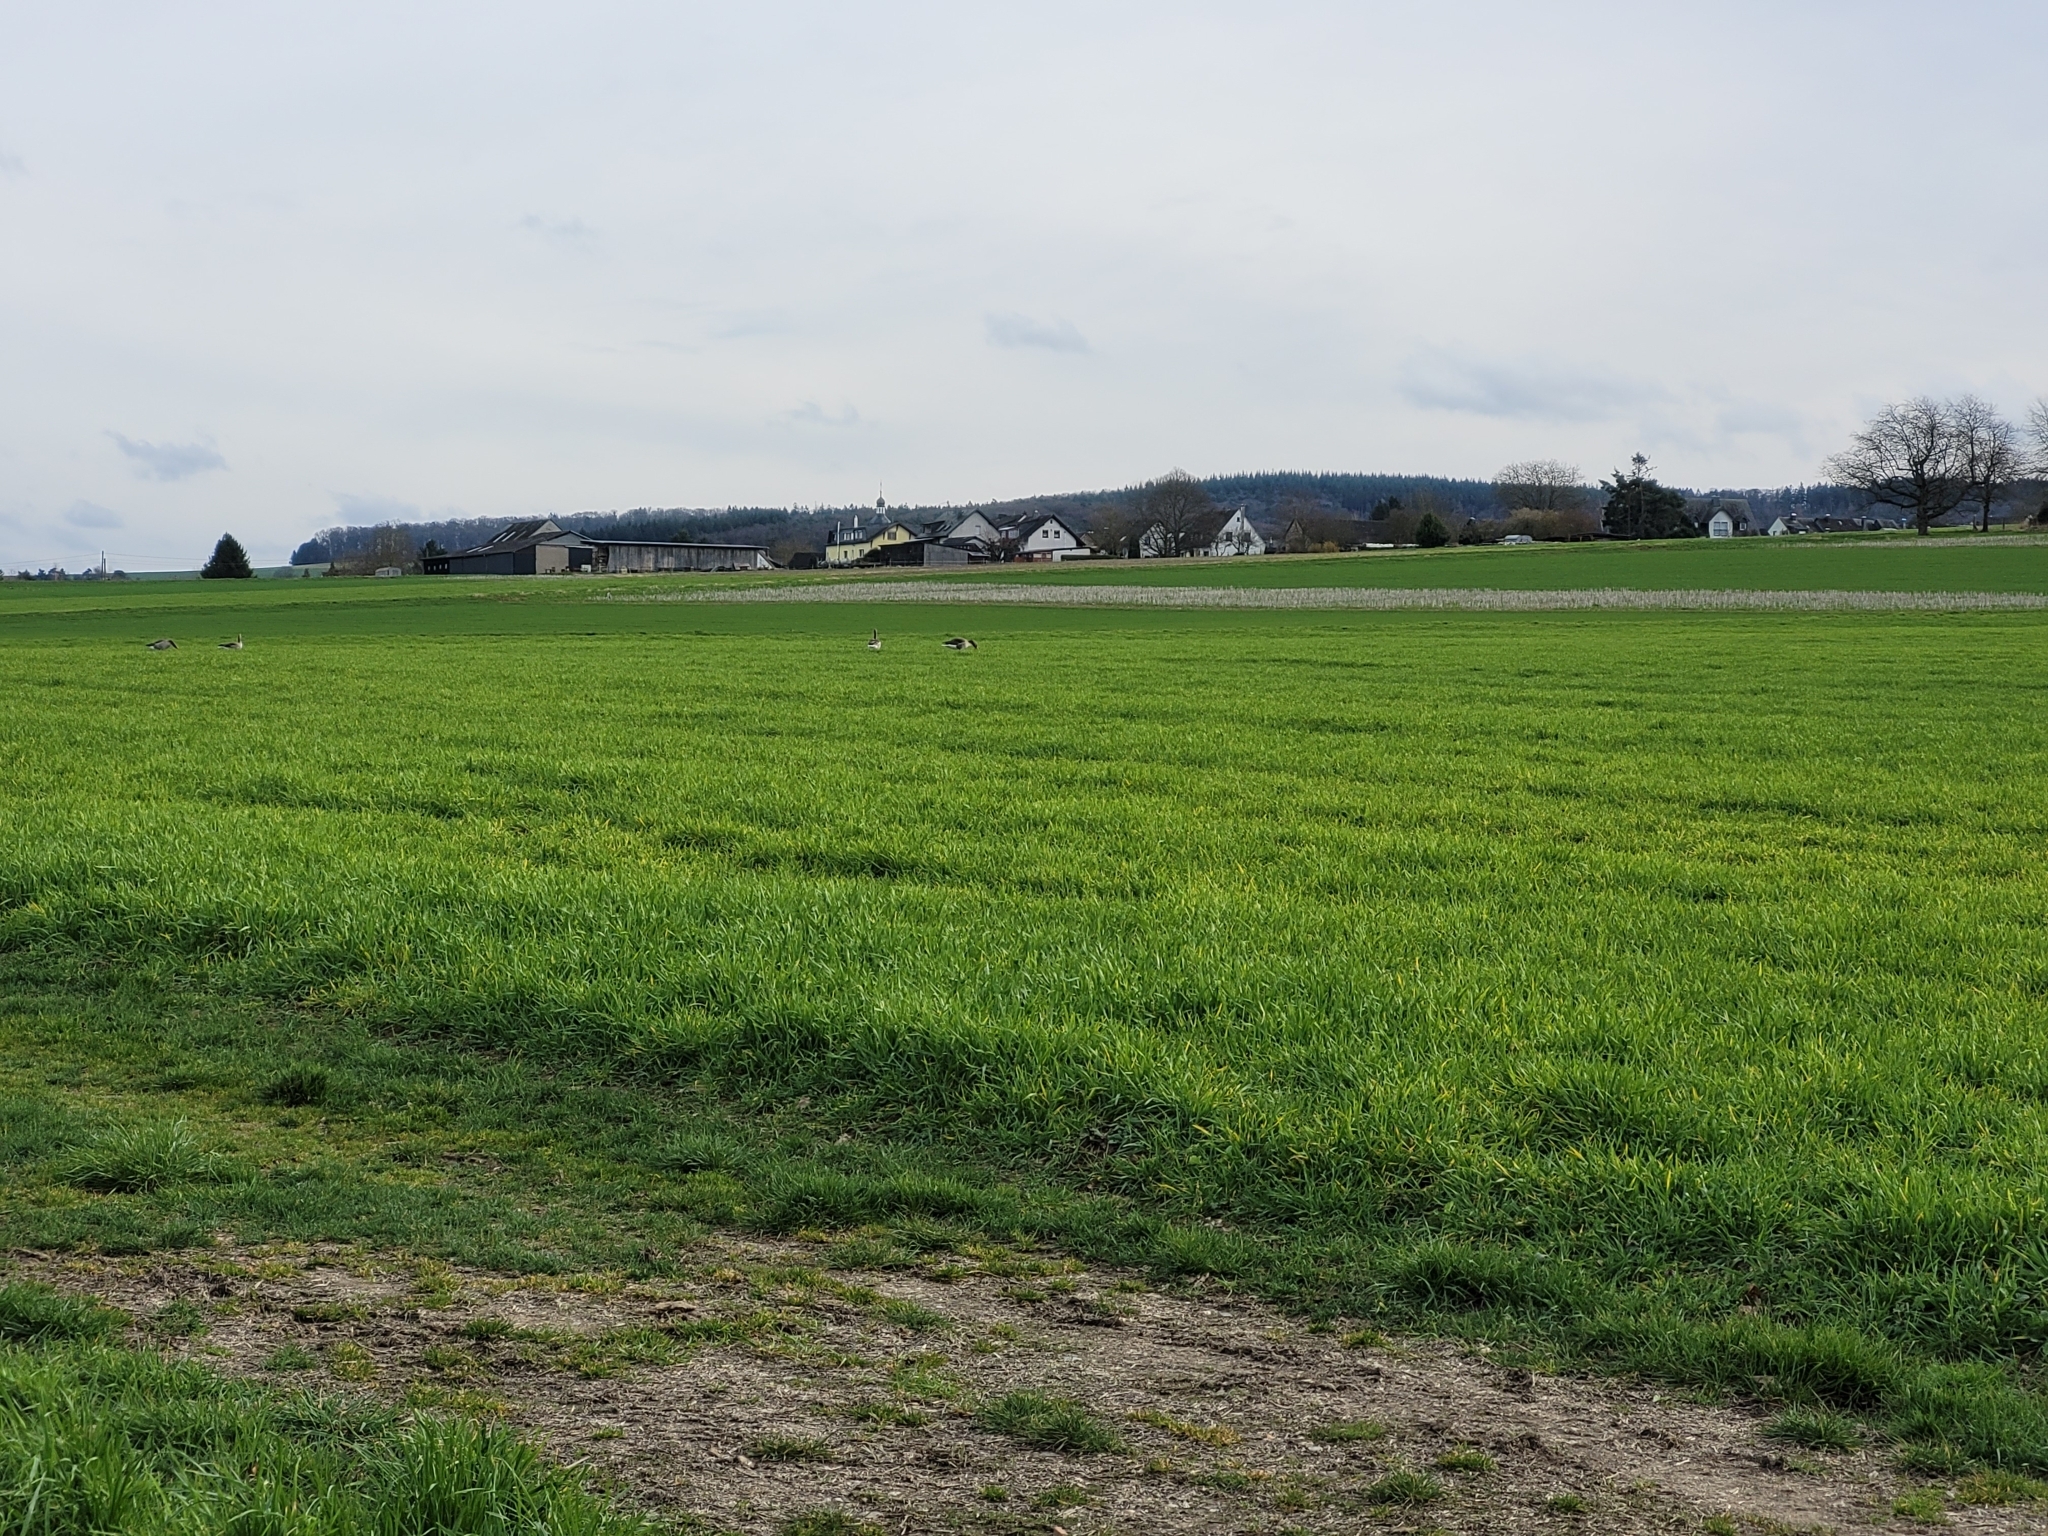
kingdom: Animalia
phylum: Chordata
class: Aves
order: Anseriformes
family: Anatidae
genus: Anser
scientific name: Anser anser
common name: Greylag goose
